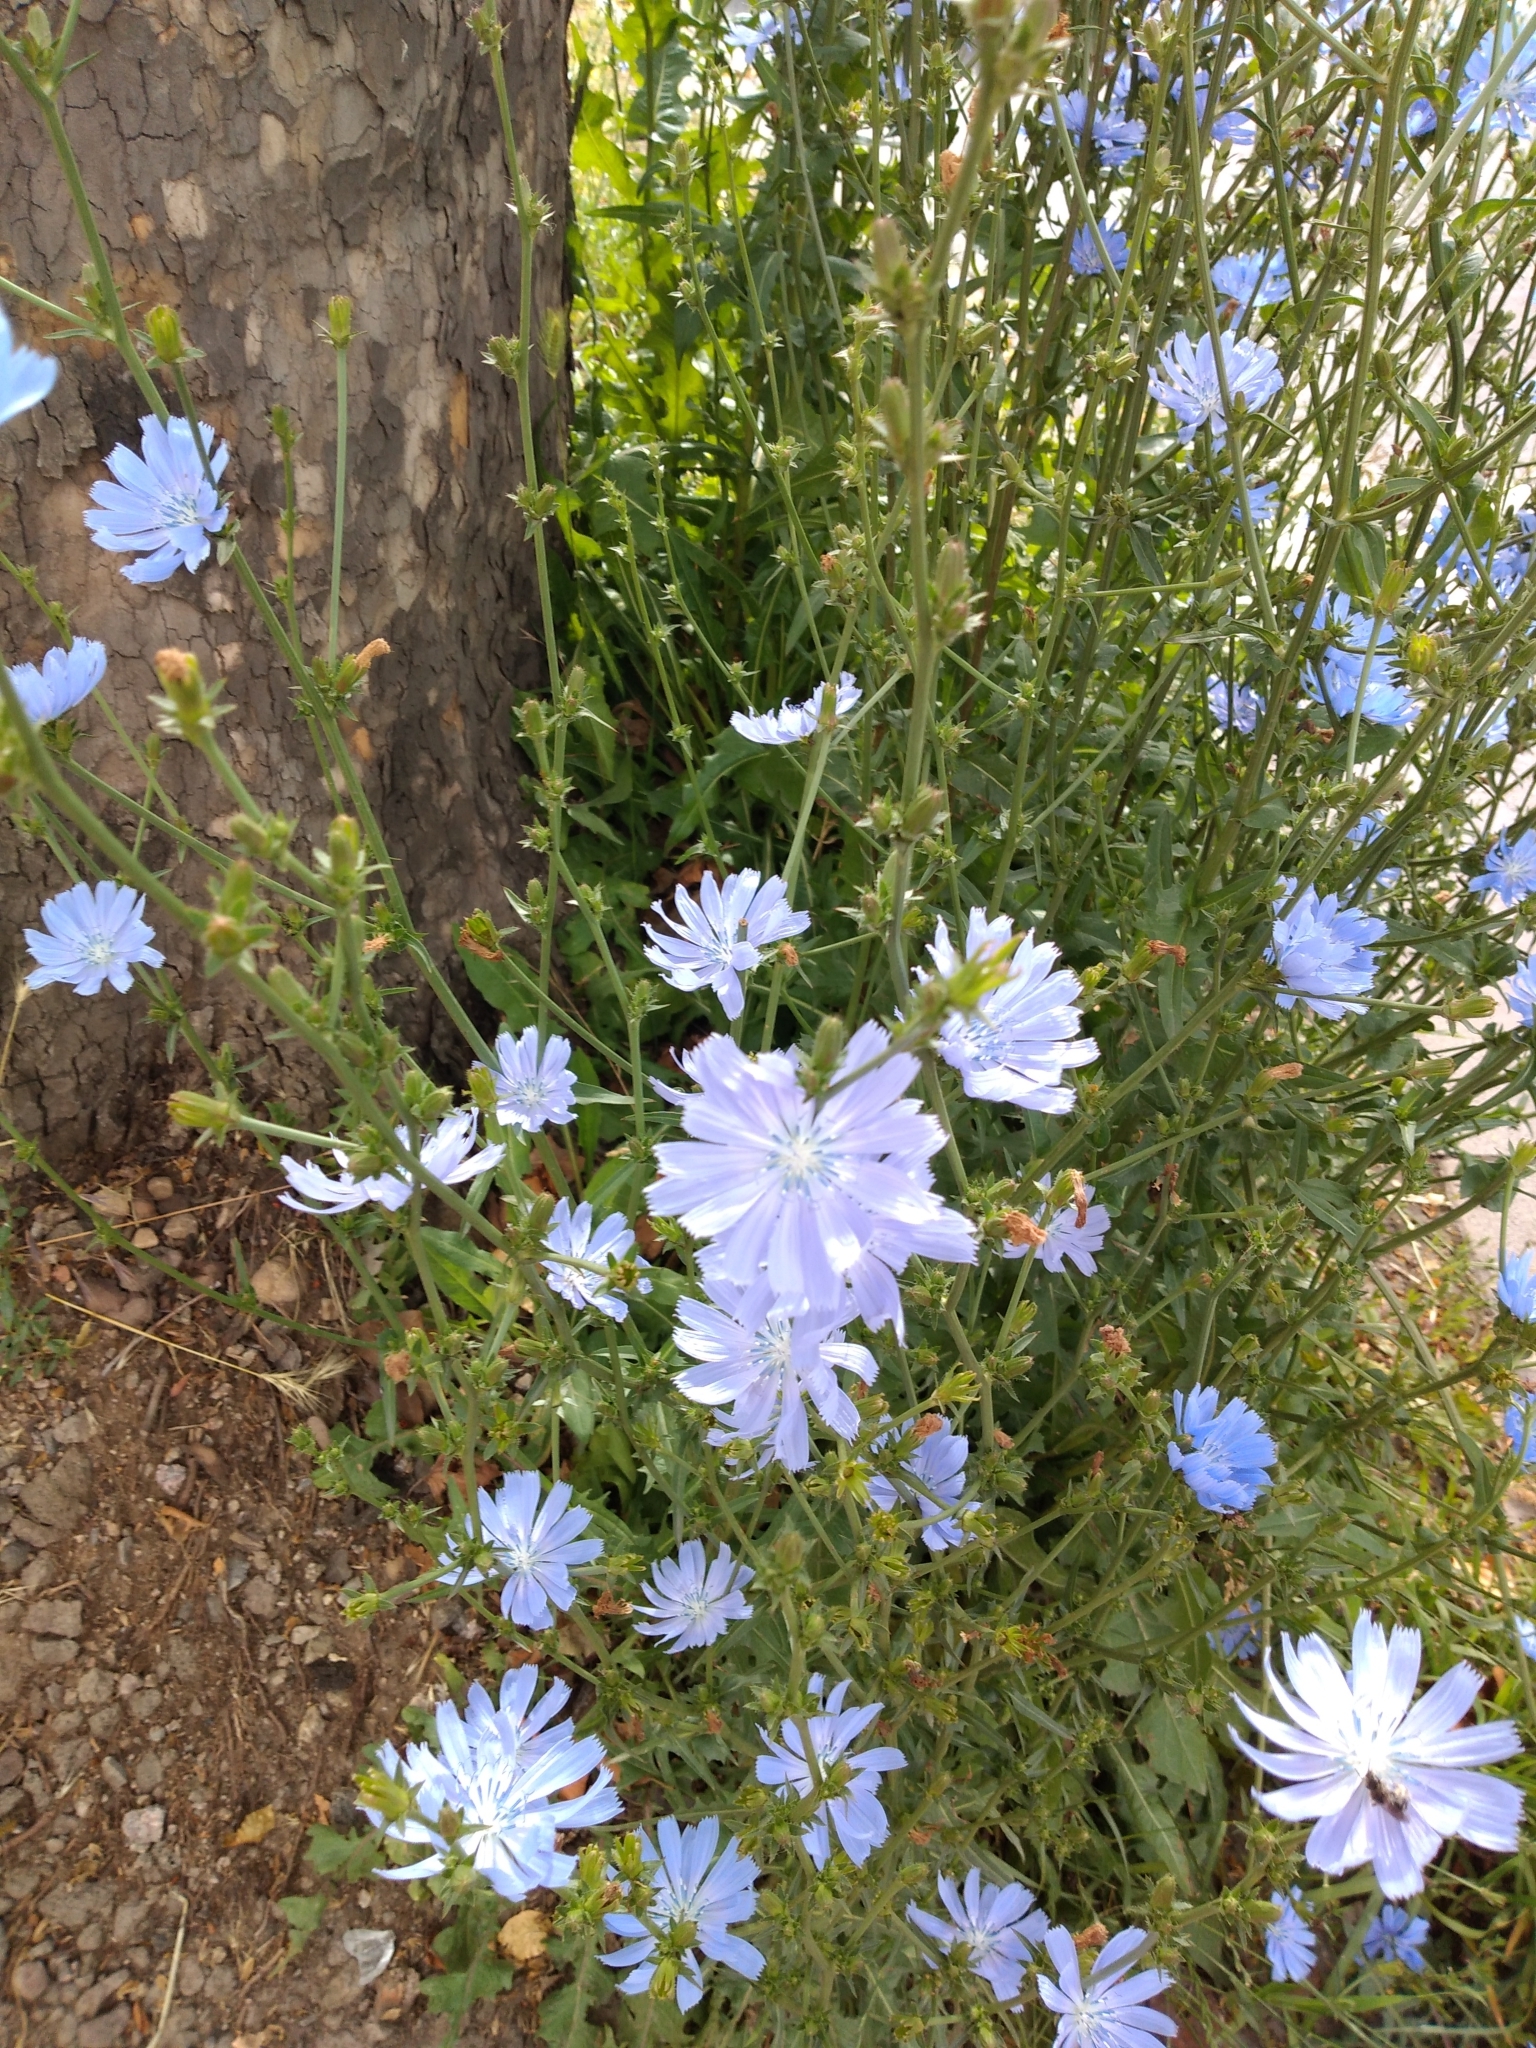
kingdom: Plantae
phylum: Tracheophyta
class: Magnoliopsida
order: Asterales
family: Asteraceae
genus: Cichorium
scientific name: Cichorium intybus
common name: Chicory
